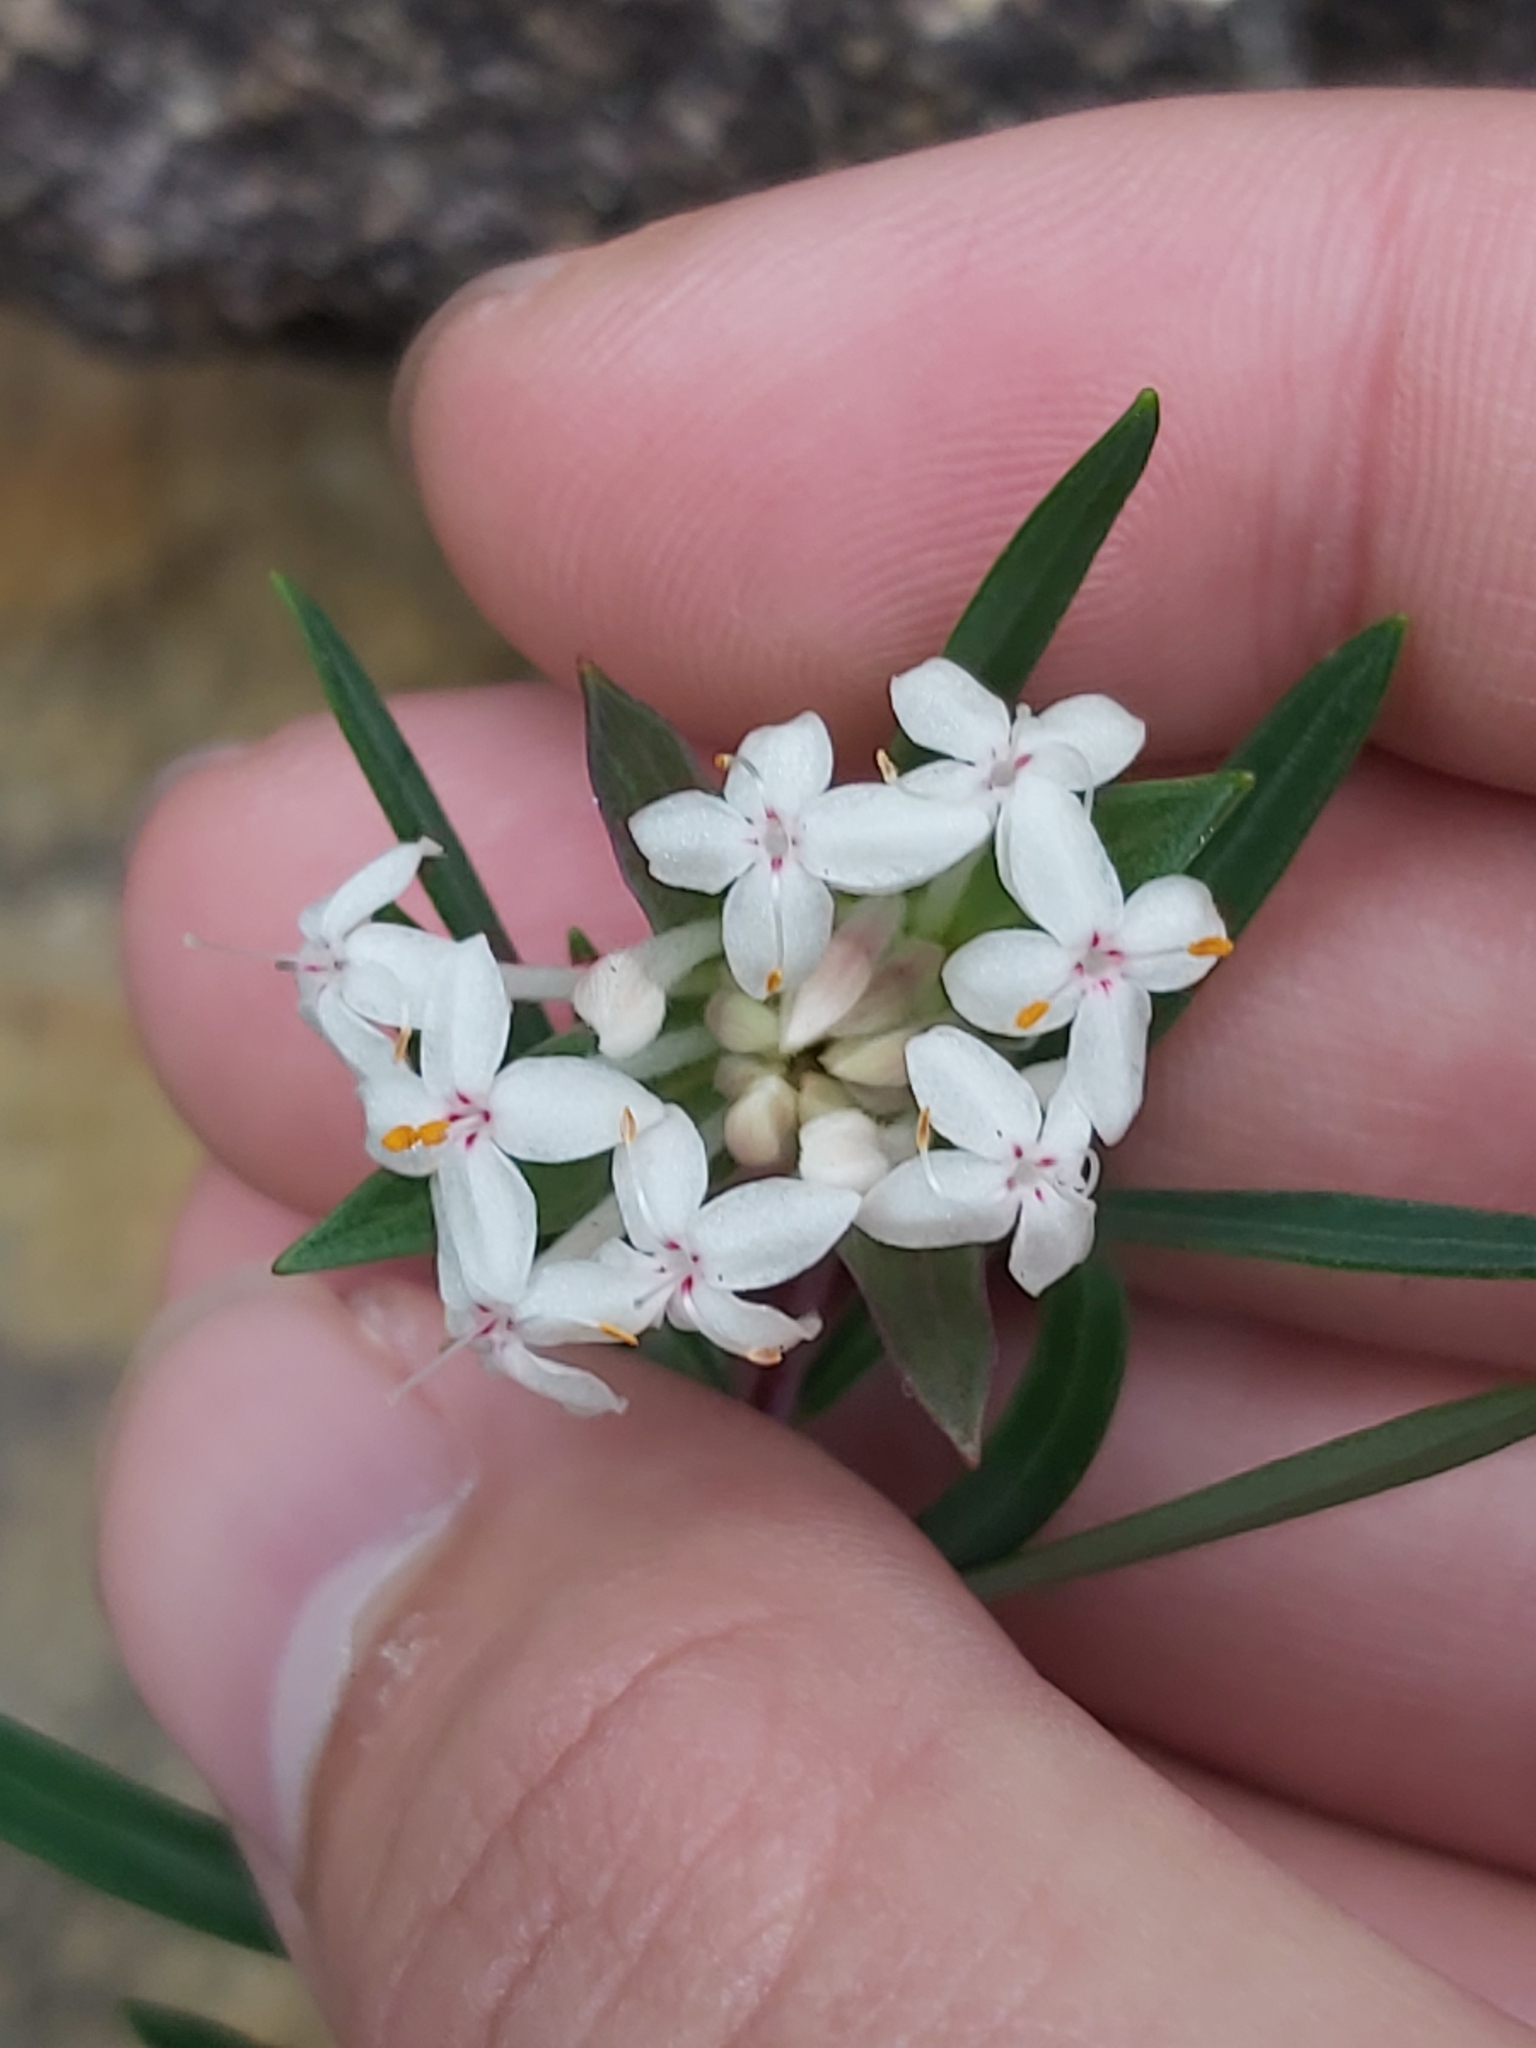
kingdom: Plantae
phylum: Tracheophyta
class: Magnoliopsida
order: Malvales
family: Thymelaeaceae
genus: Pimelea
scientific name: Pimelea linifolia
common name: Queen-of-the-bush
